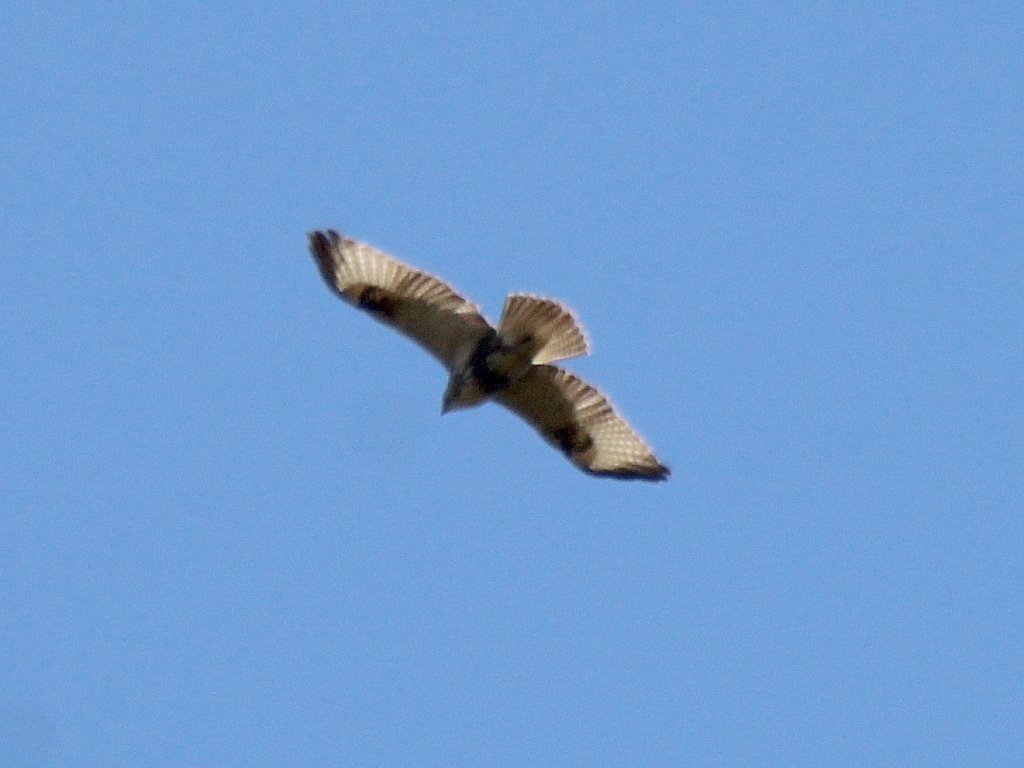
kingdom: Animalia
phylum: Chordata
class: Aves
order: Accipitriformes
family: Accipitridae
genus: Buteo
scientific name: Buteo japonicus
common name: Eastern buzzard
